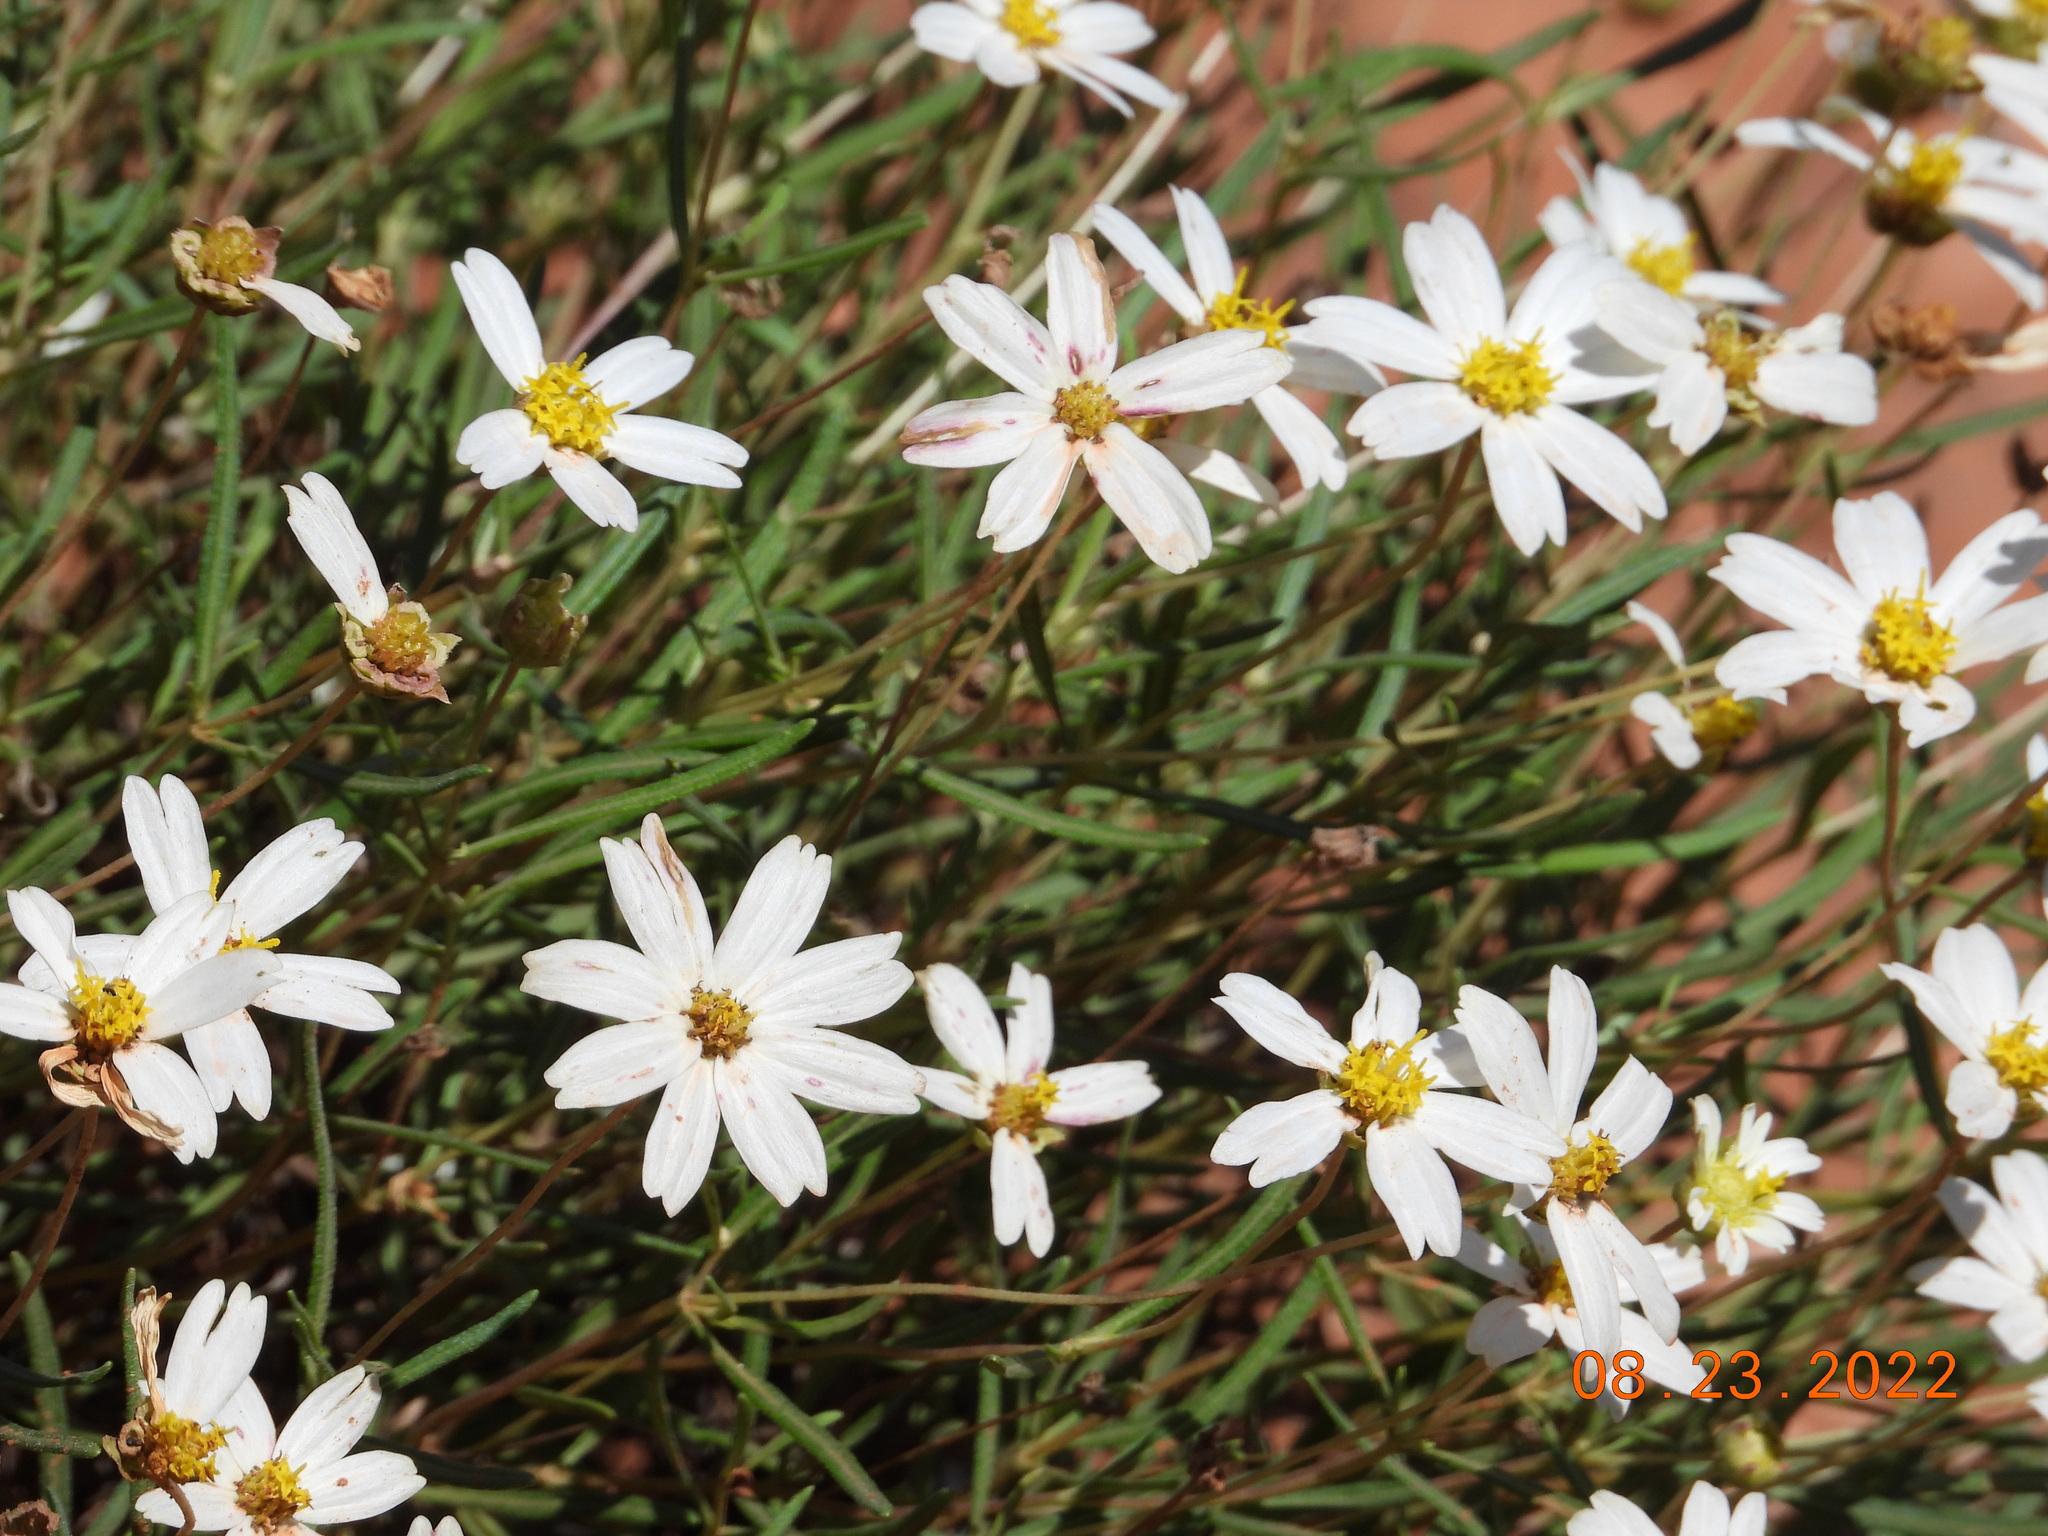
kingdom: Plantae
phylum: Tracheophyta
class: Magnoliopsida
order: Asterales
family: Asteraceae
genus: Melampodium
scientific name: Melampodium leucanthum
